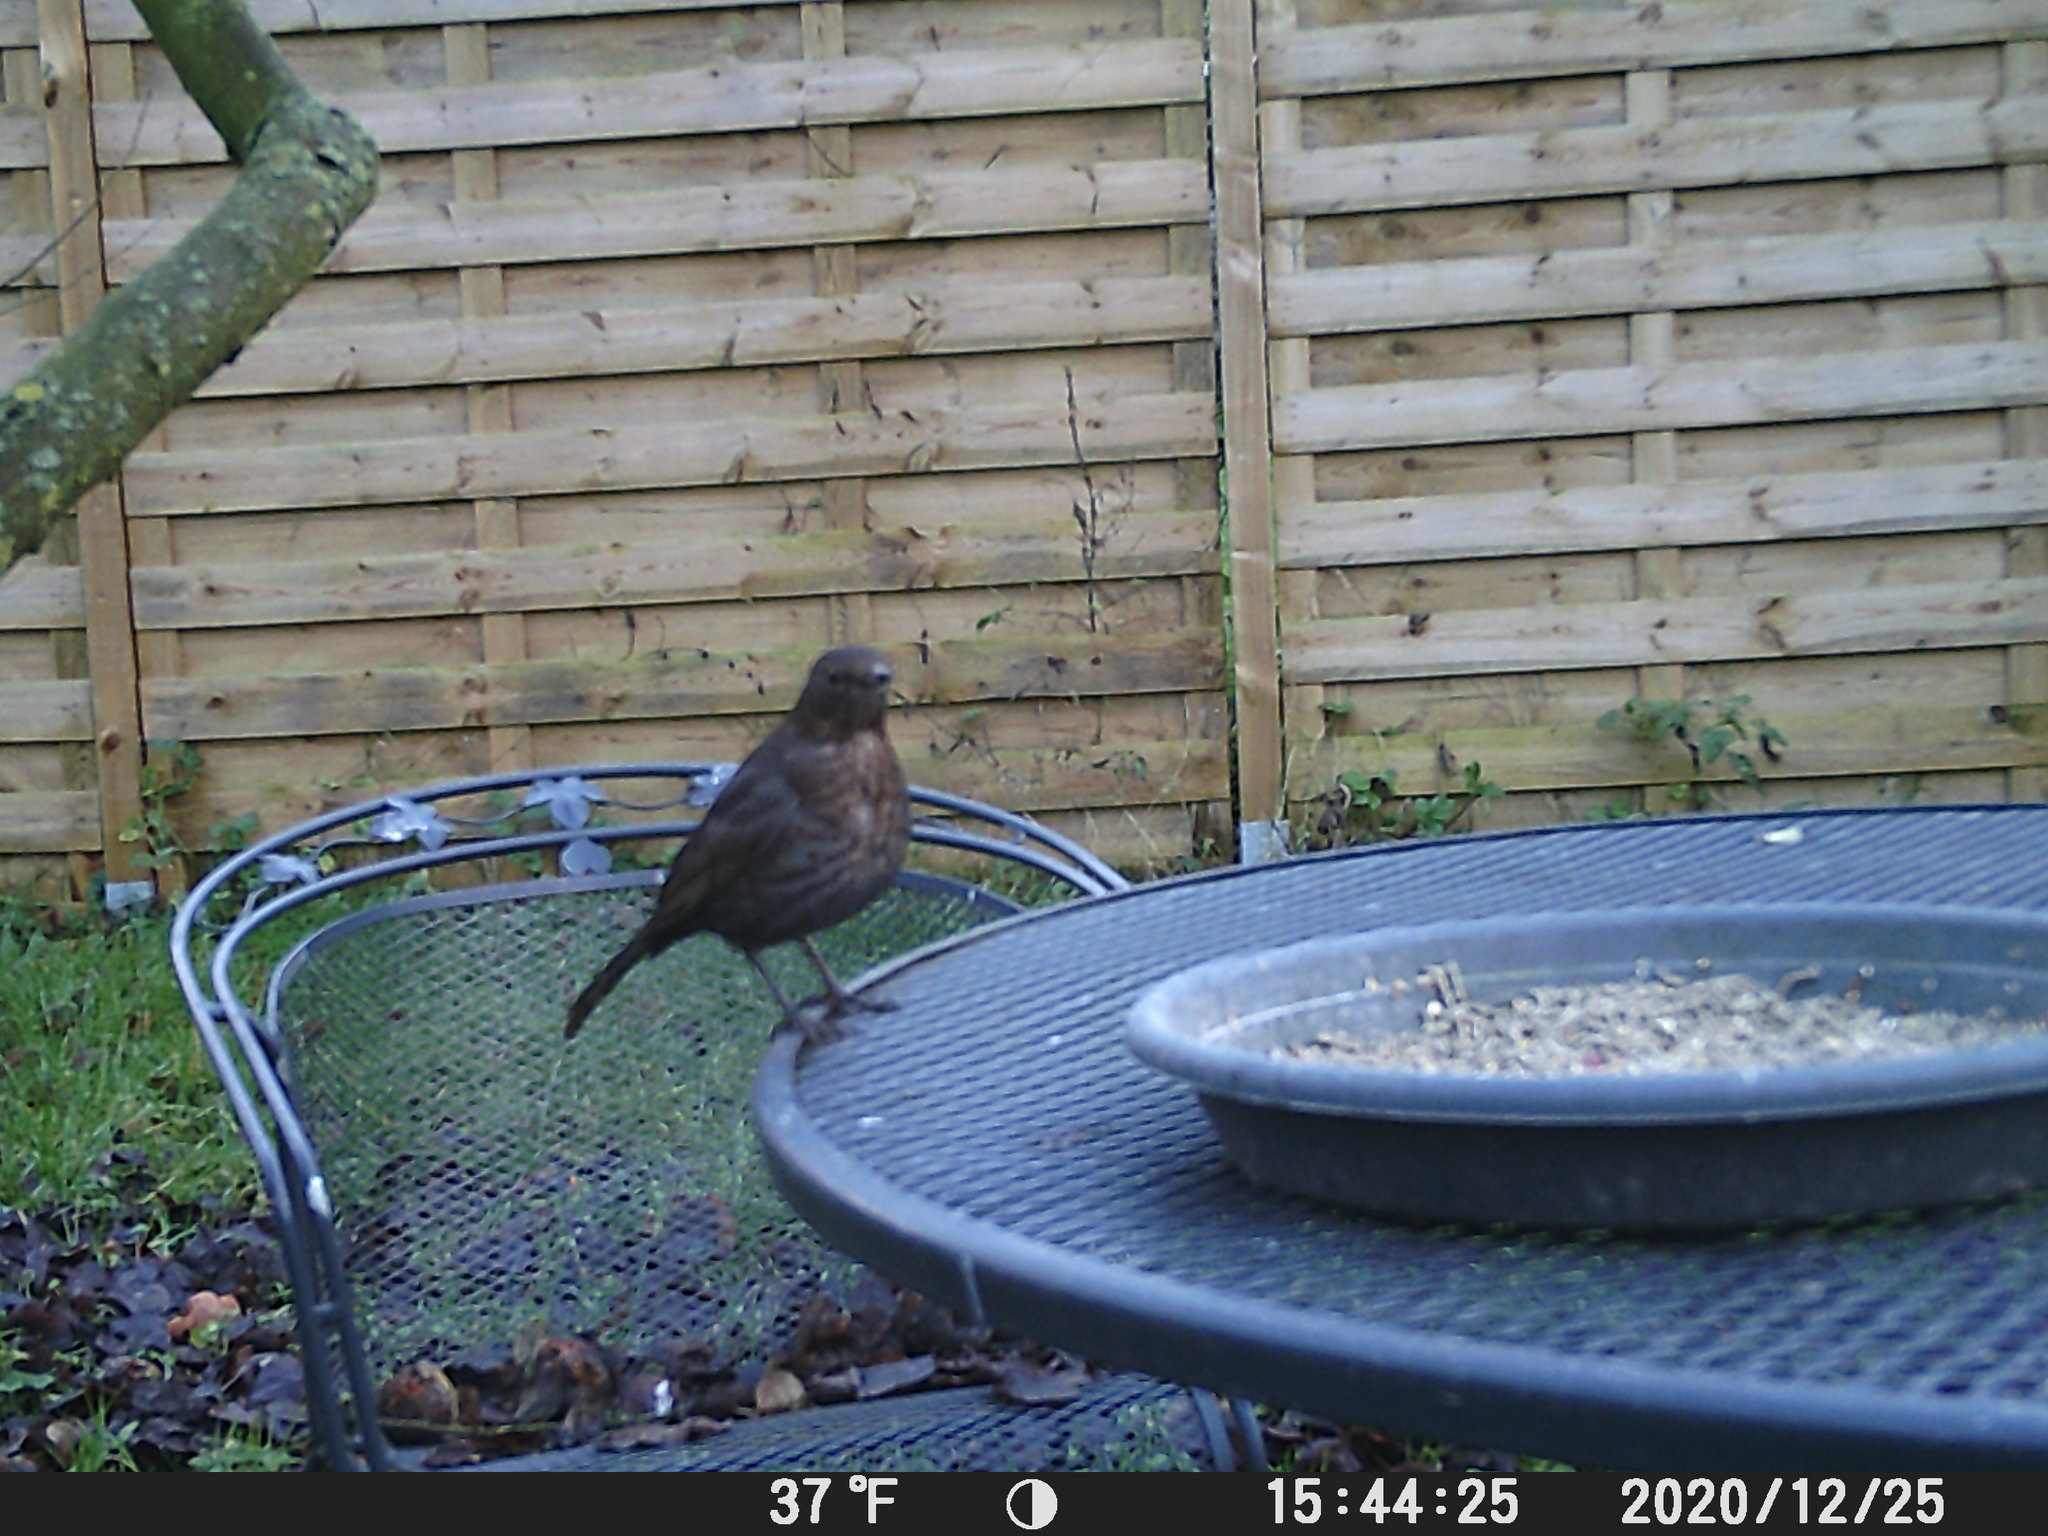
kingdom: Animalia
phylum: Chordata
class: Aves
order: Passeriformes
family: Turdidae
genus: Turdus
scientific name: Turdus merula
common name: Common blackbird
